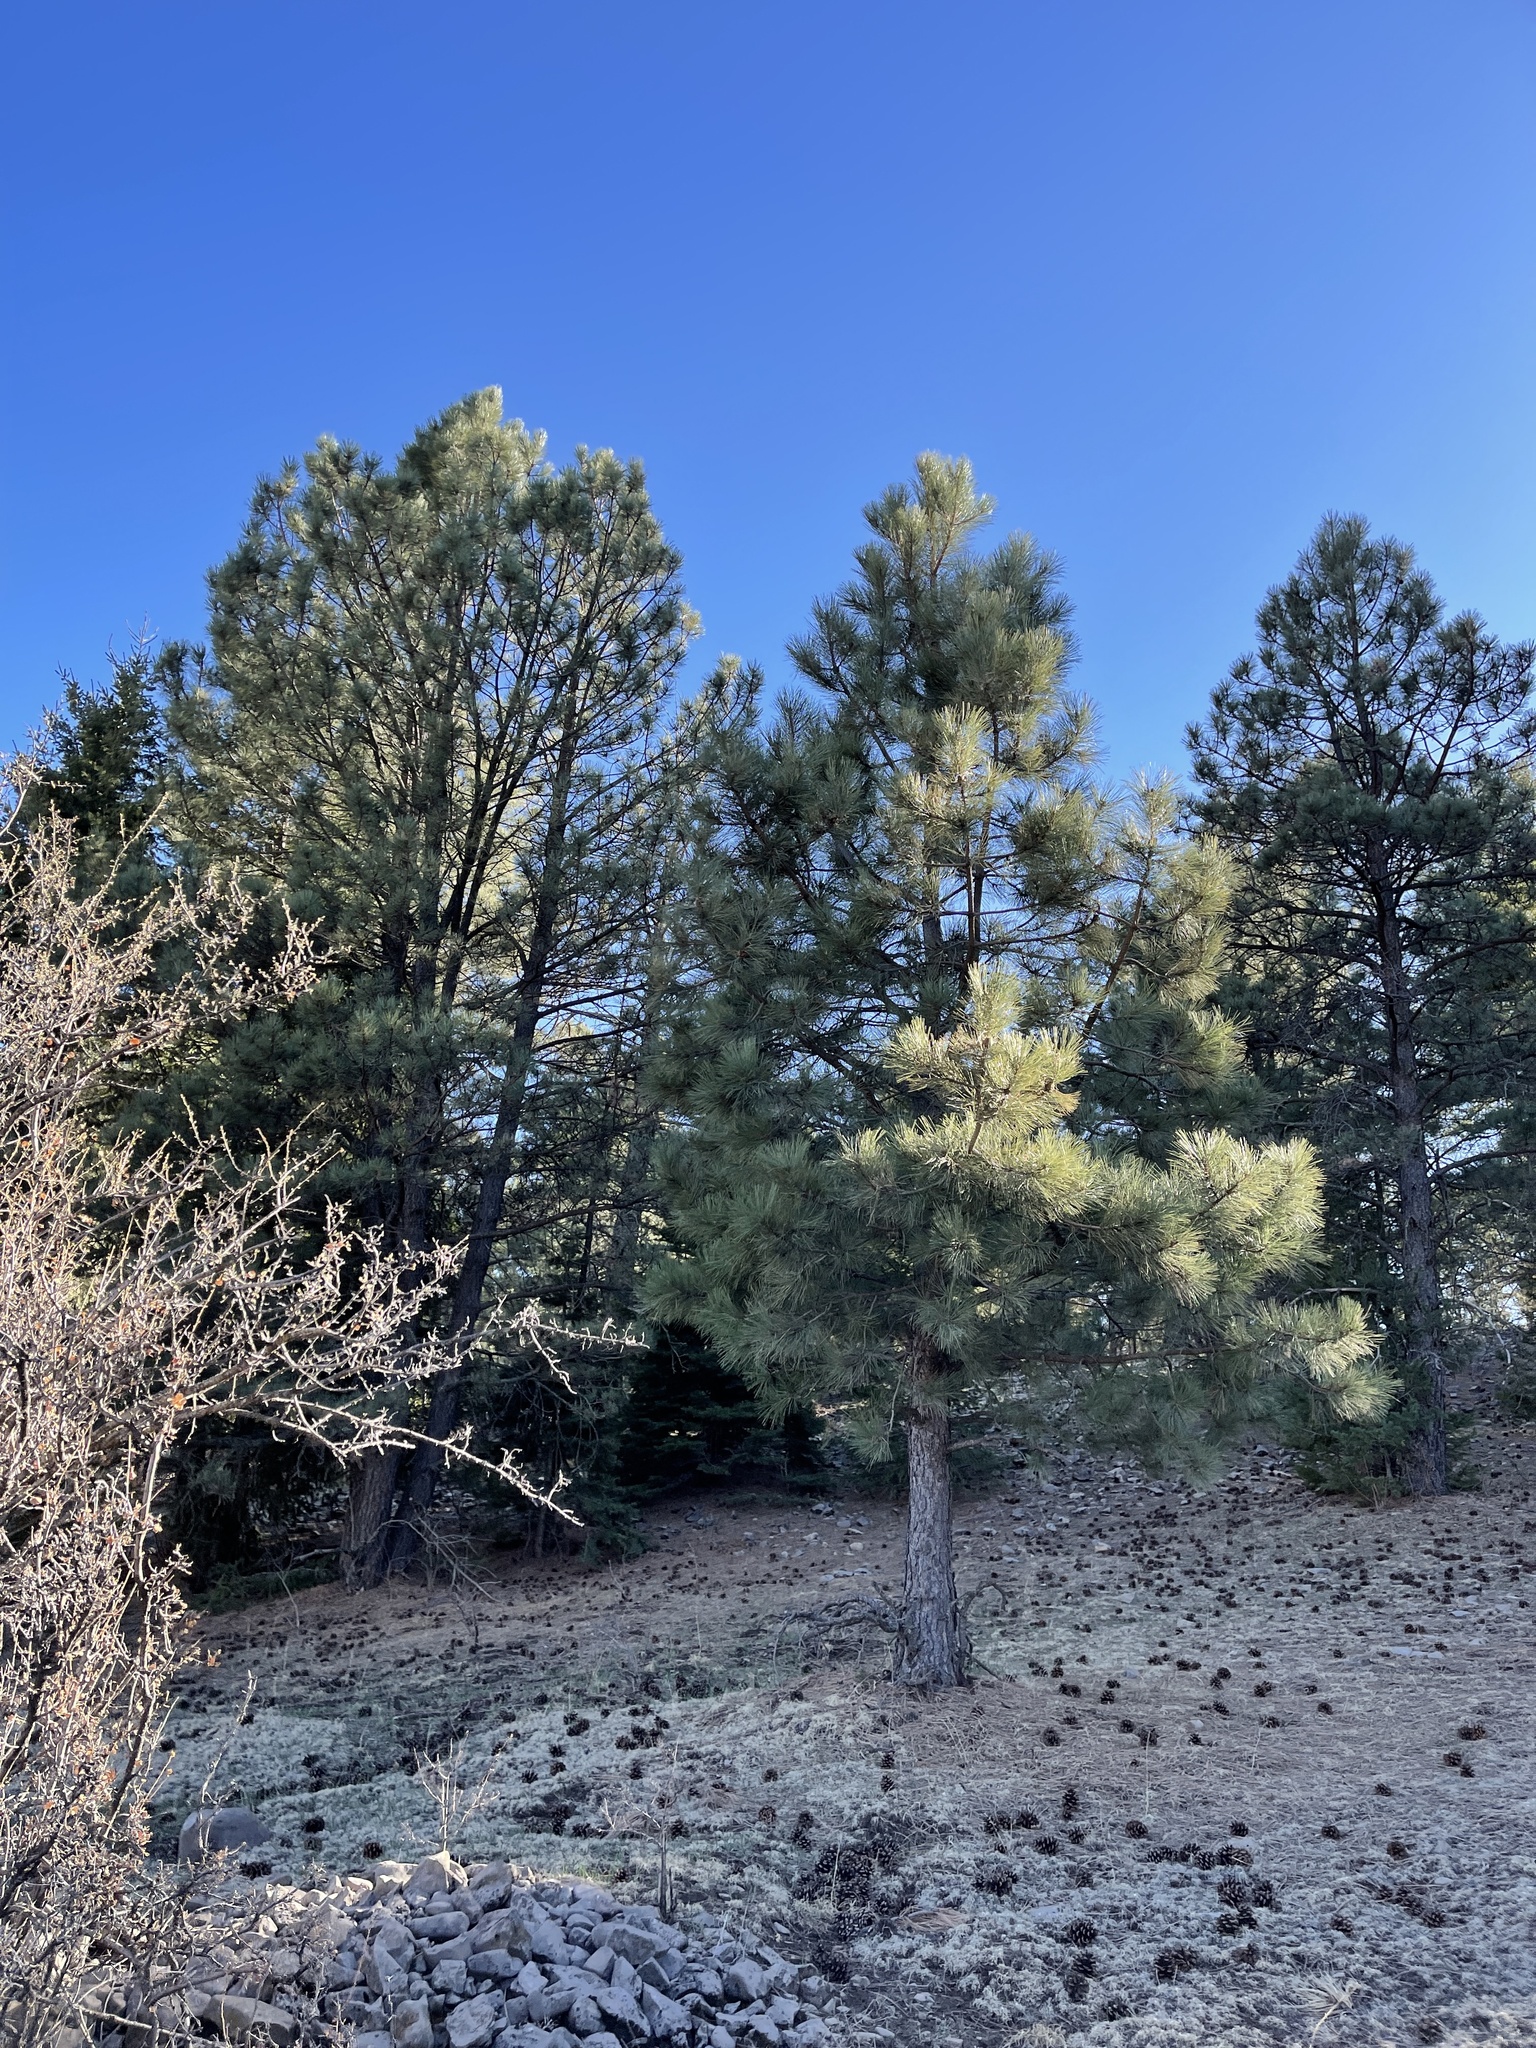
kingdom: Plantae
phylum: Tracheophyta
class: Pinopsida
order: Pinales
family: Pinaceae
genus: Pinus
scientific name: Pinus ponderosa
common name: Western yellow-pine
